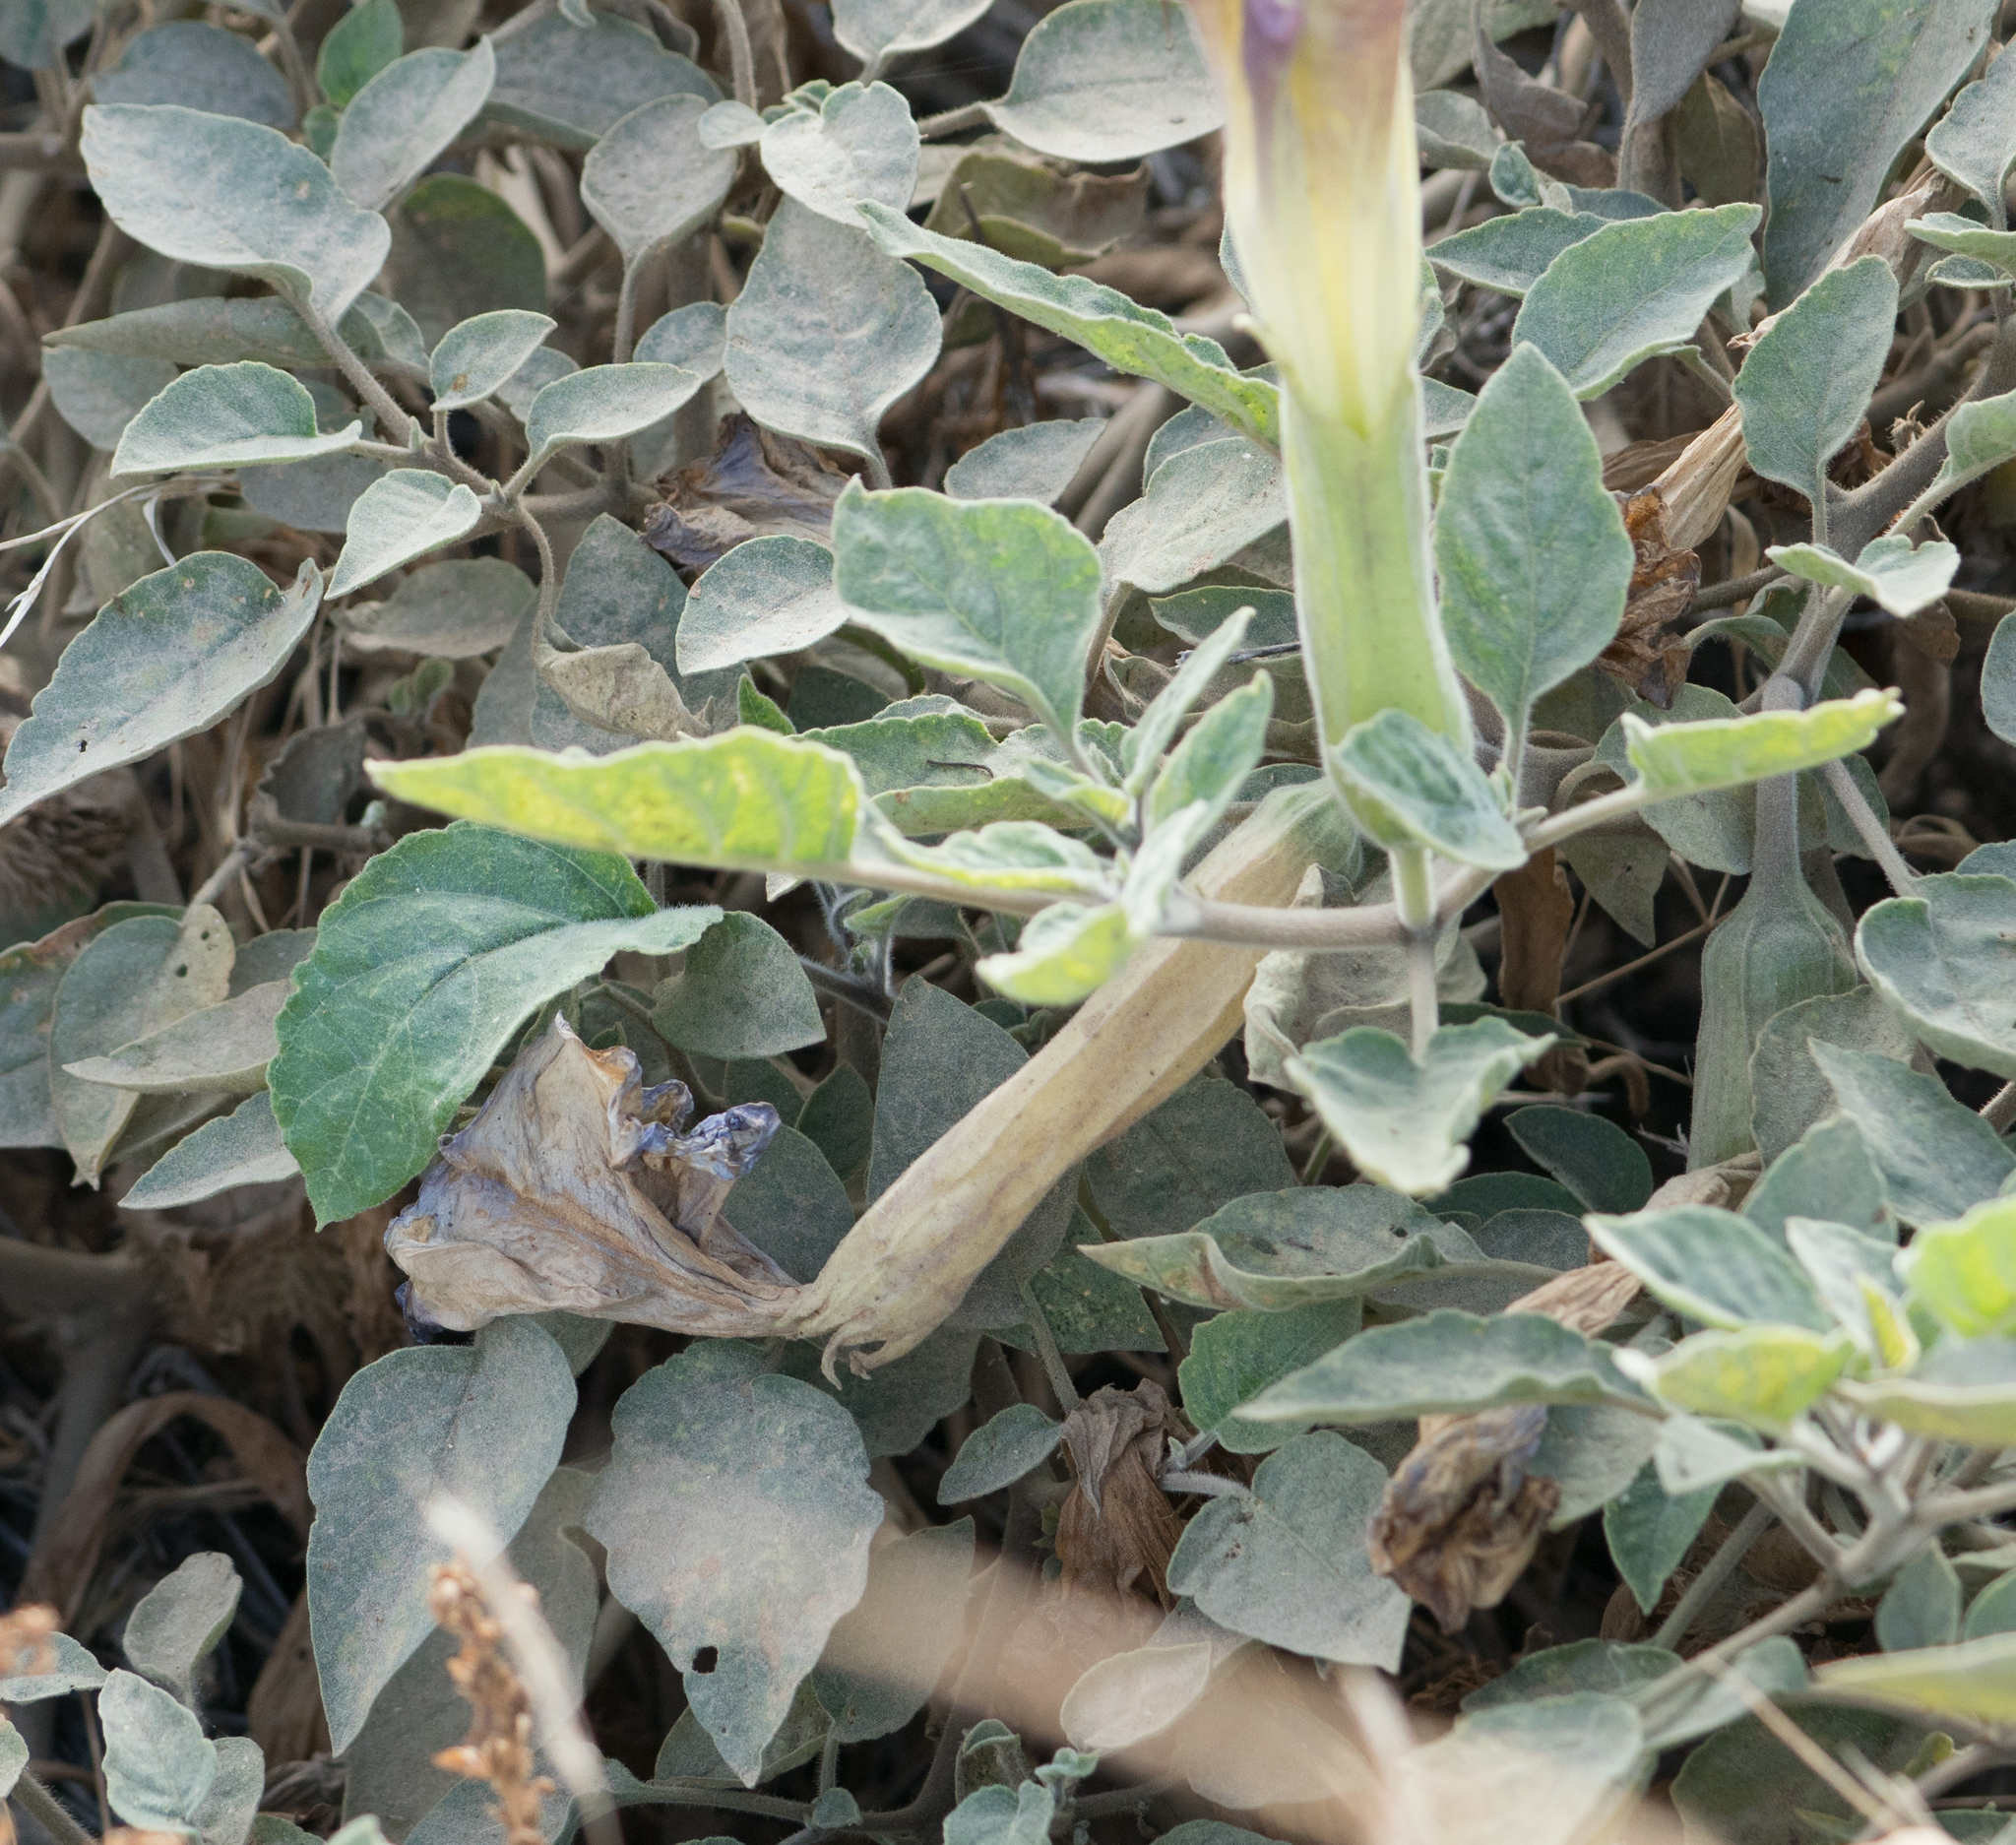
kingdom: Plantae
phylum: Tracheophyta
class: Magnoliopsida
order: Solanales
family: Solanaceae
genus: Datura
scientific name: Datura wrightii
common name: Sacred thorn-apple
